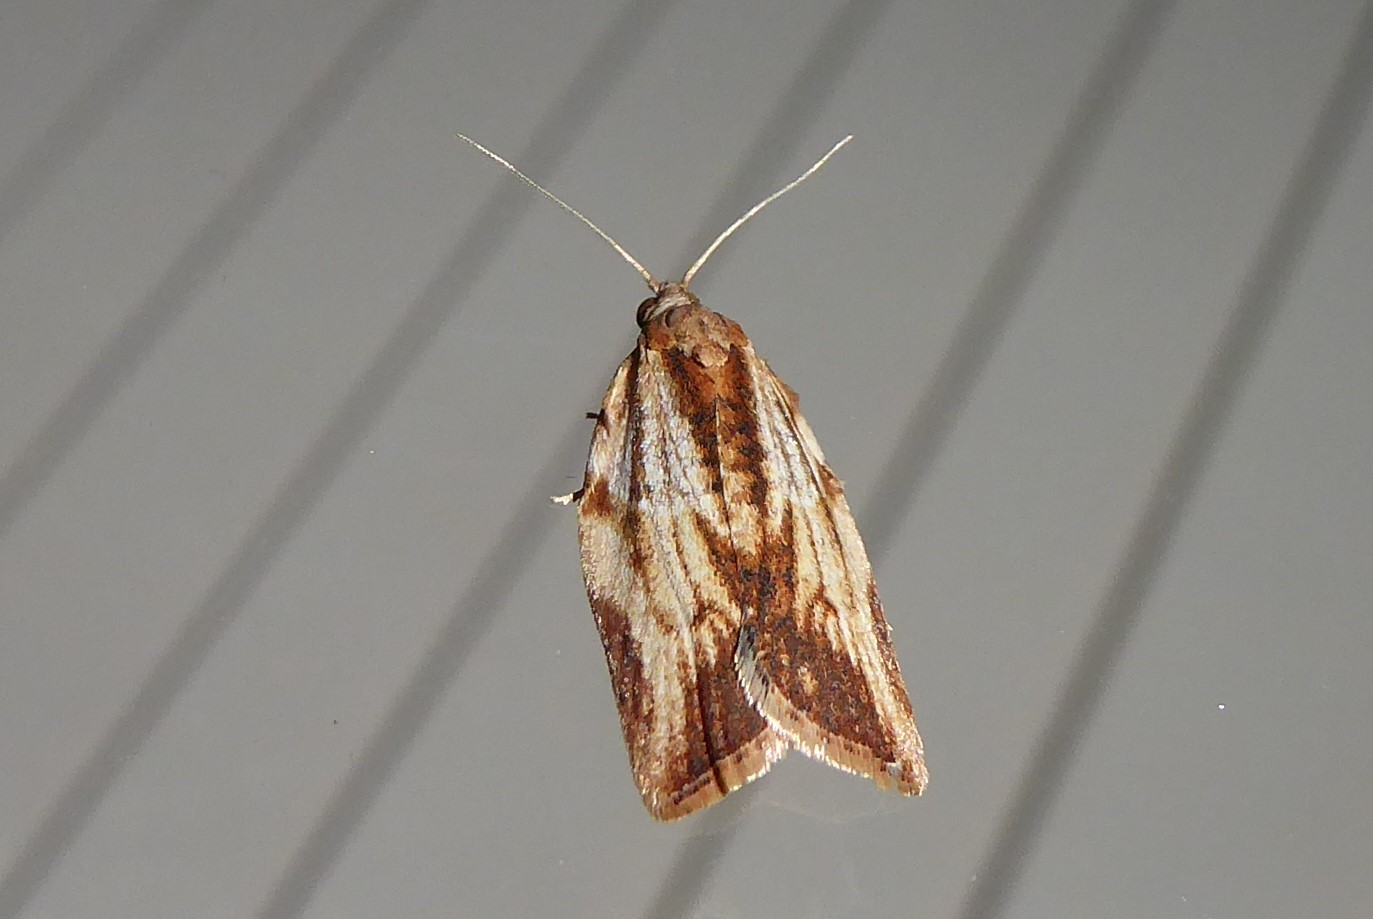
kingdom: Animalia
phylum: Arthropoda
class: Insecta
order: Lepidoptera
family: Tortricidae
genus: Epiphyas
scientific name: Epiphyas postvittana
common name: Light brown apple moth
